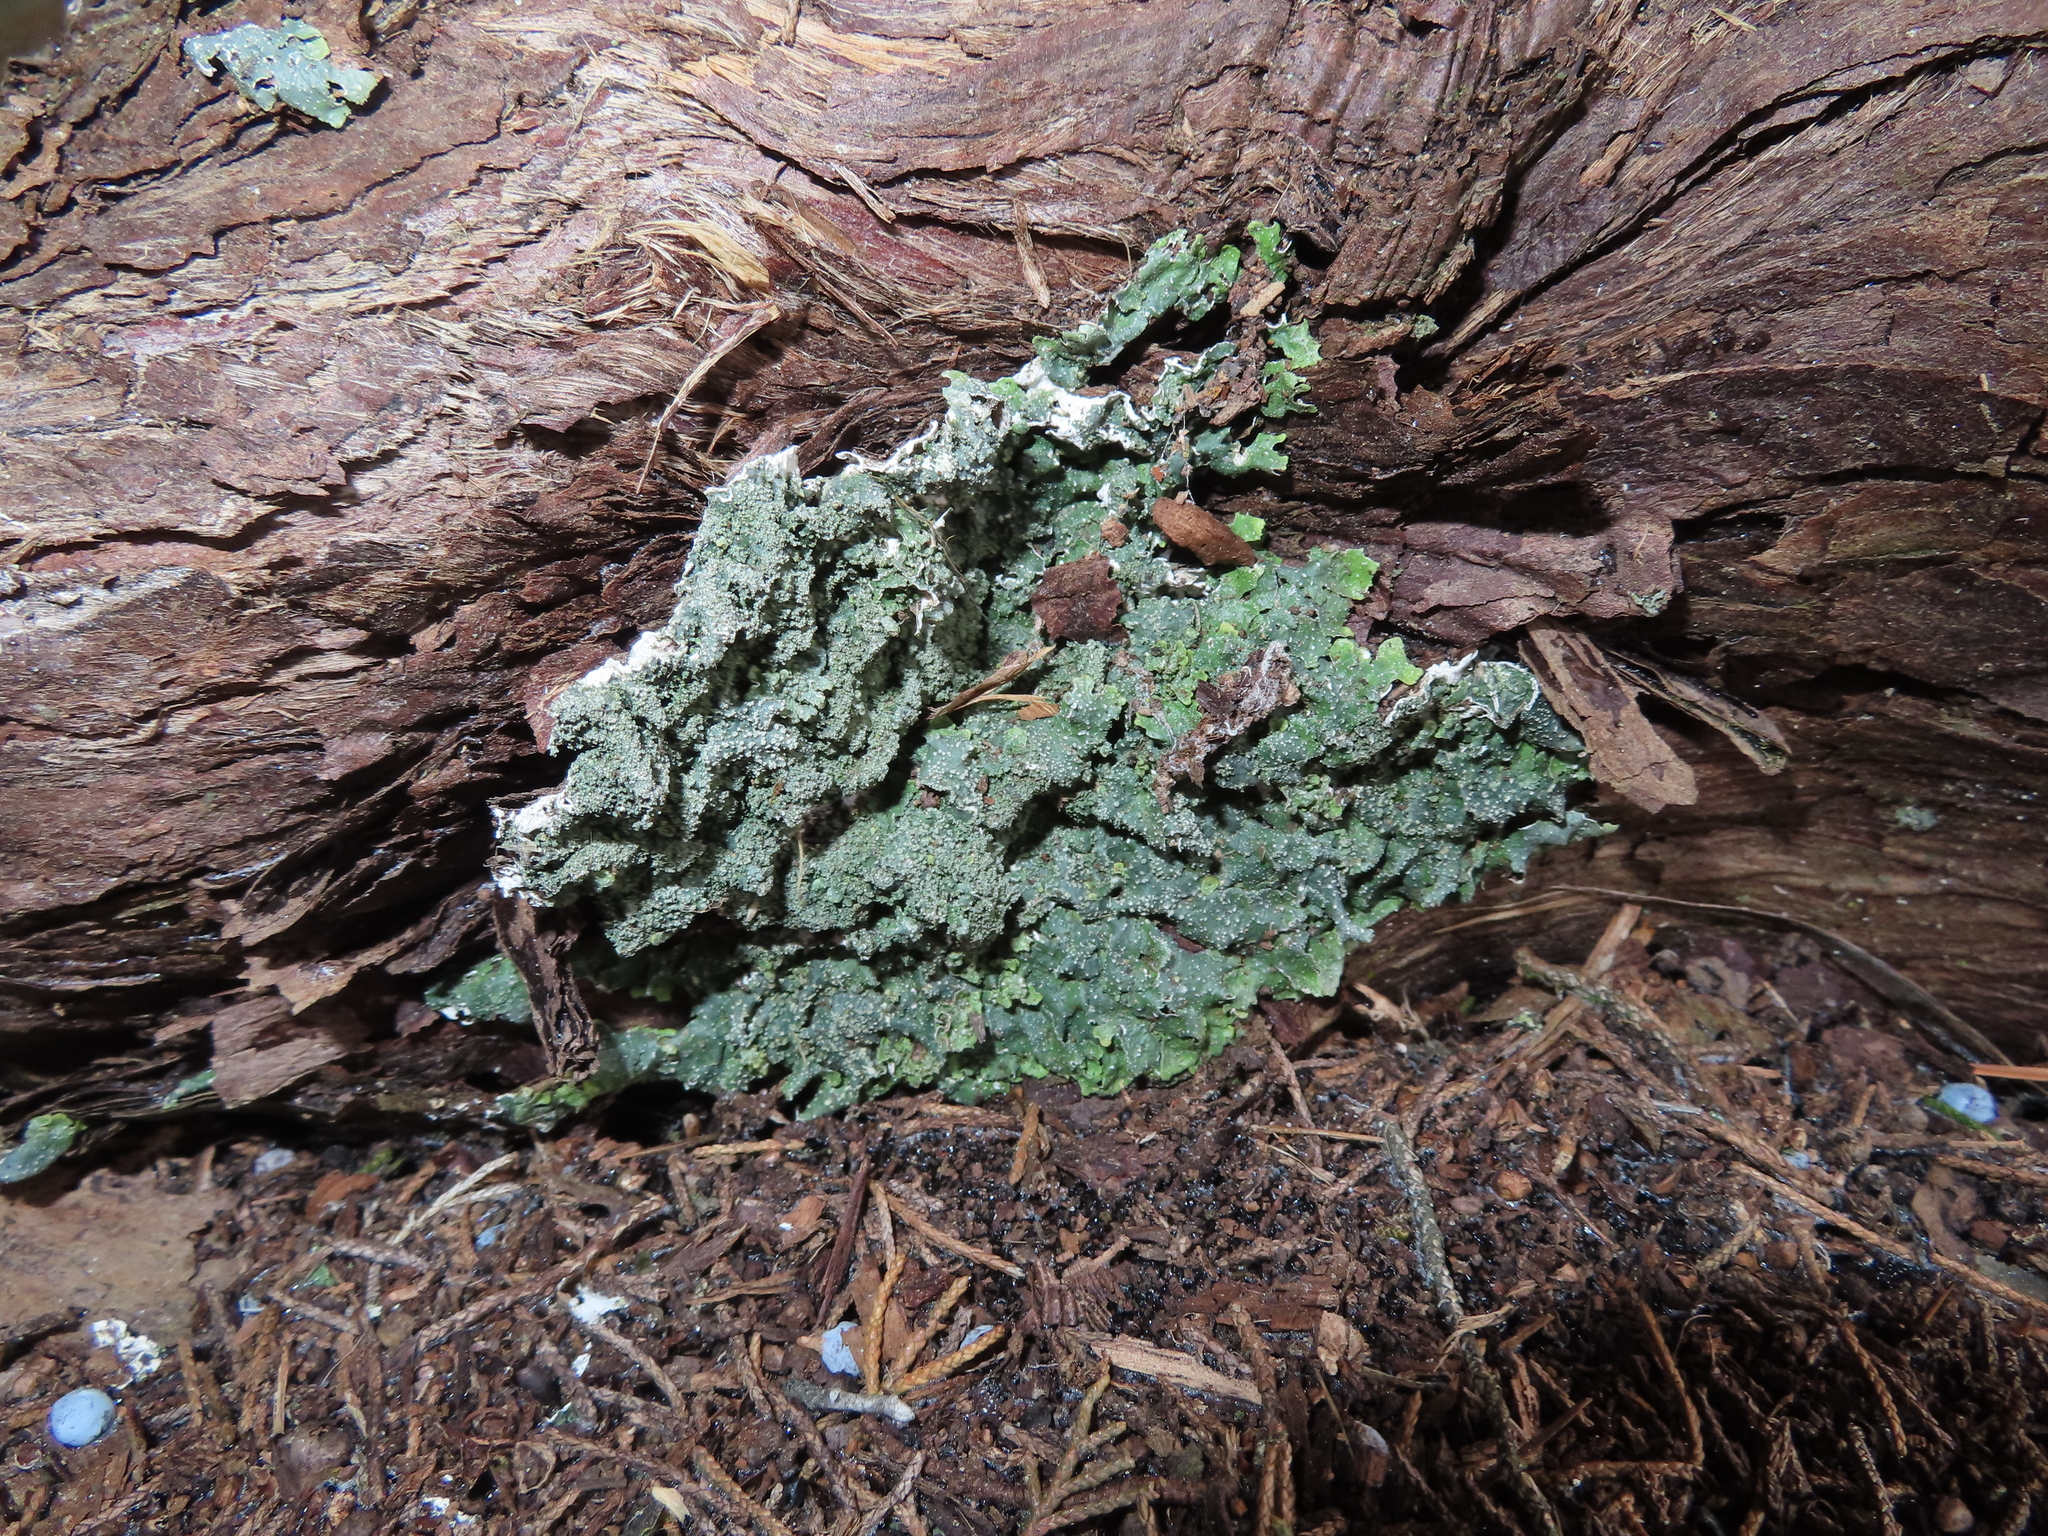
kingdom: Fungi
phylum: Ascomycota
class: Lecanoromycetes
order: Lecanorales
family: Parmeliaceae
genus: Punctelia
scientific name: Punctelia
